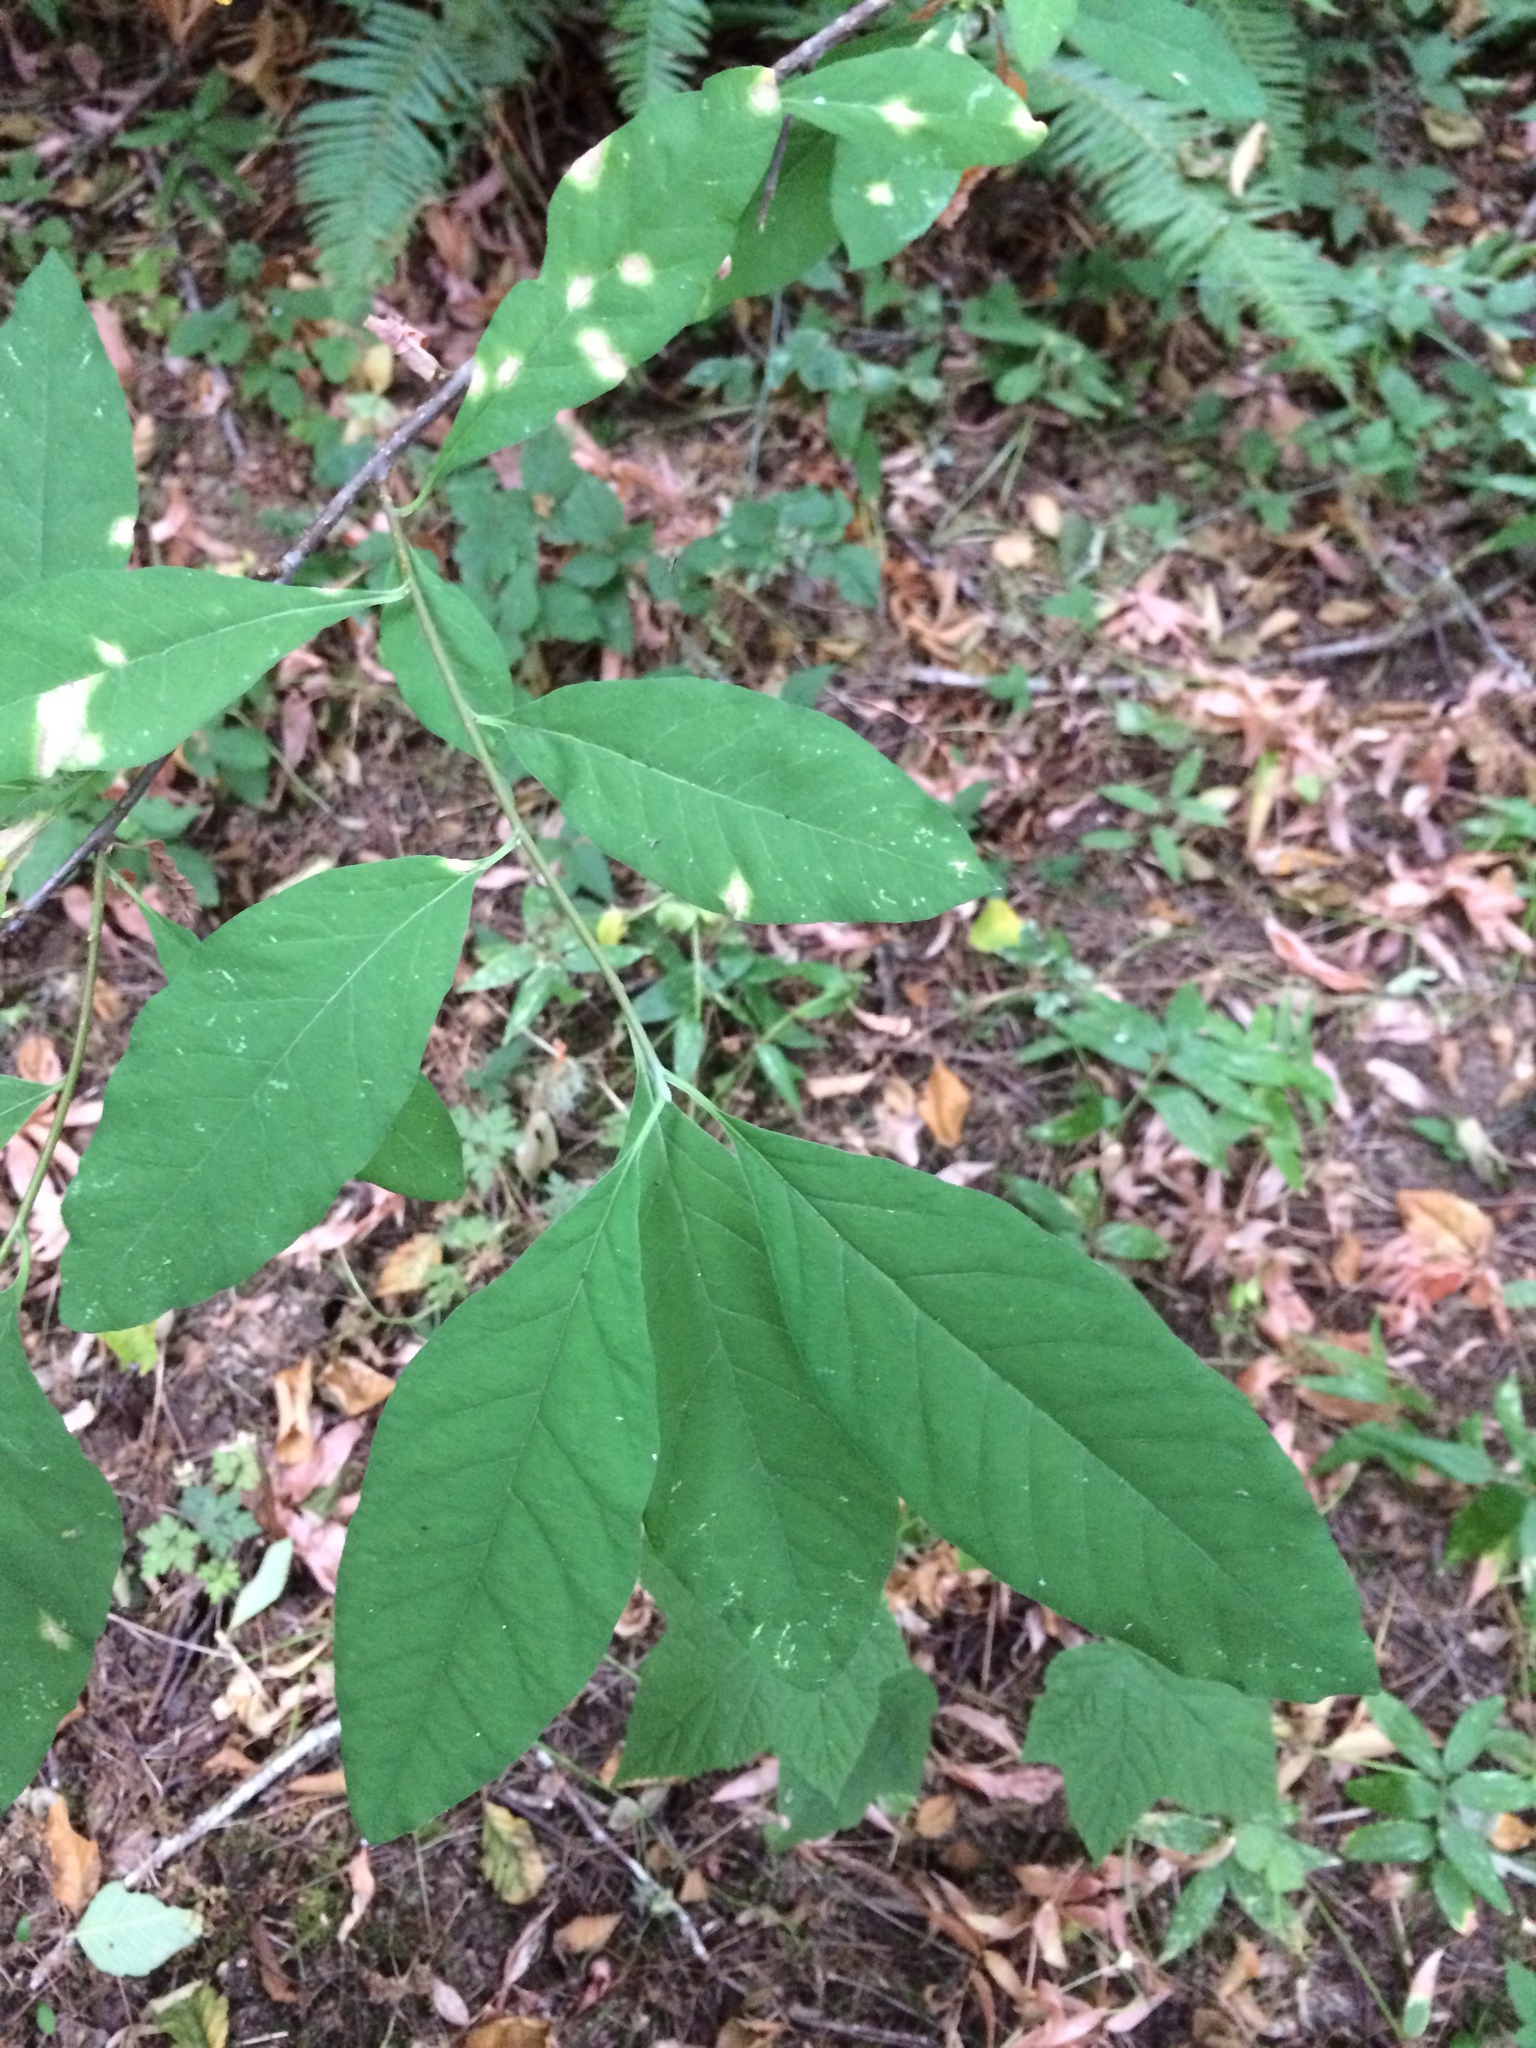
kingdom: Plantae
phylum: Tracheophyta
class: Magnoliopsida
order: Rosales
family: Rosaceae
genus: Oemleria
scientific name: Oemleria cerasiformis
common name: Osoberry
